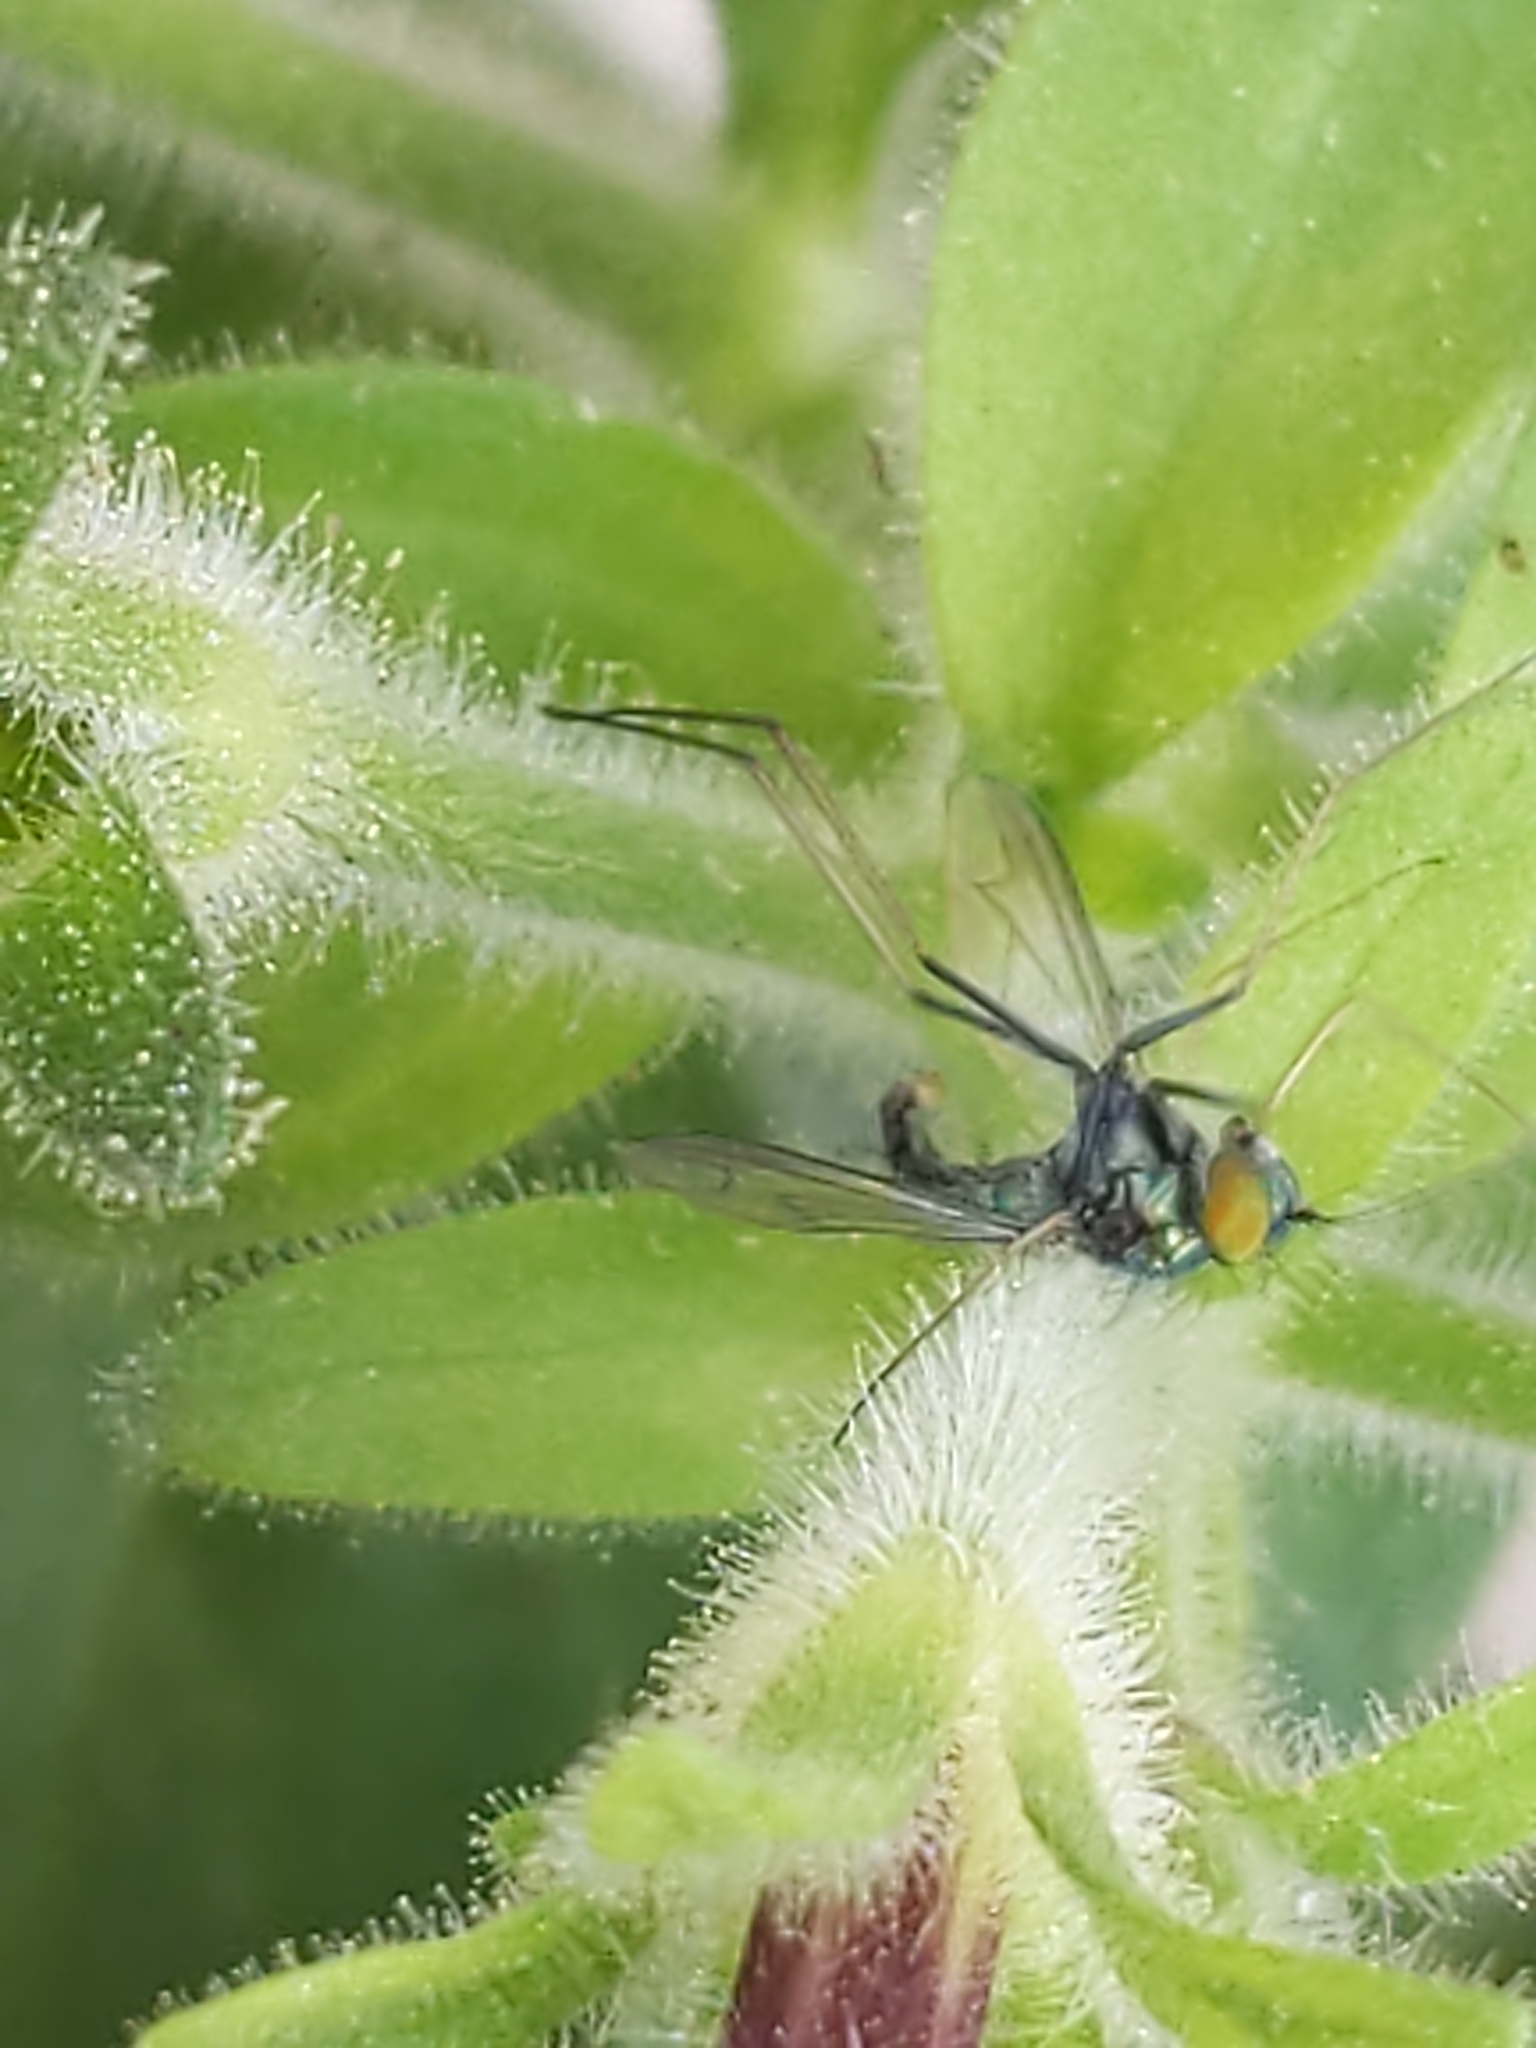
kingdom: Animalia
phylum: Arthropoda
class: Insecta
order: Diptera
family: Dolichopodidae
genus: Condylostylus
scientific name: Condylostylus comatus
